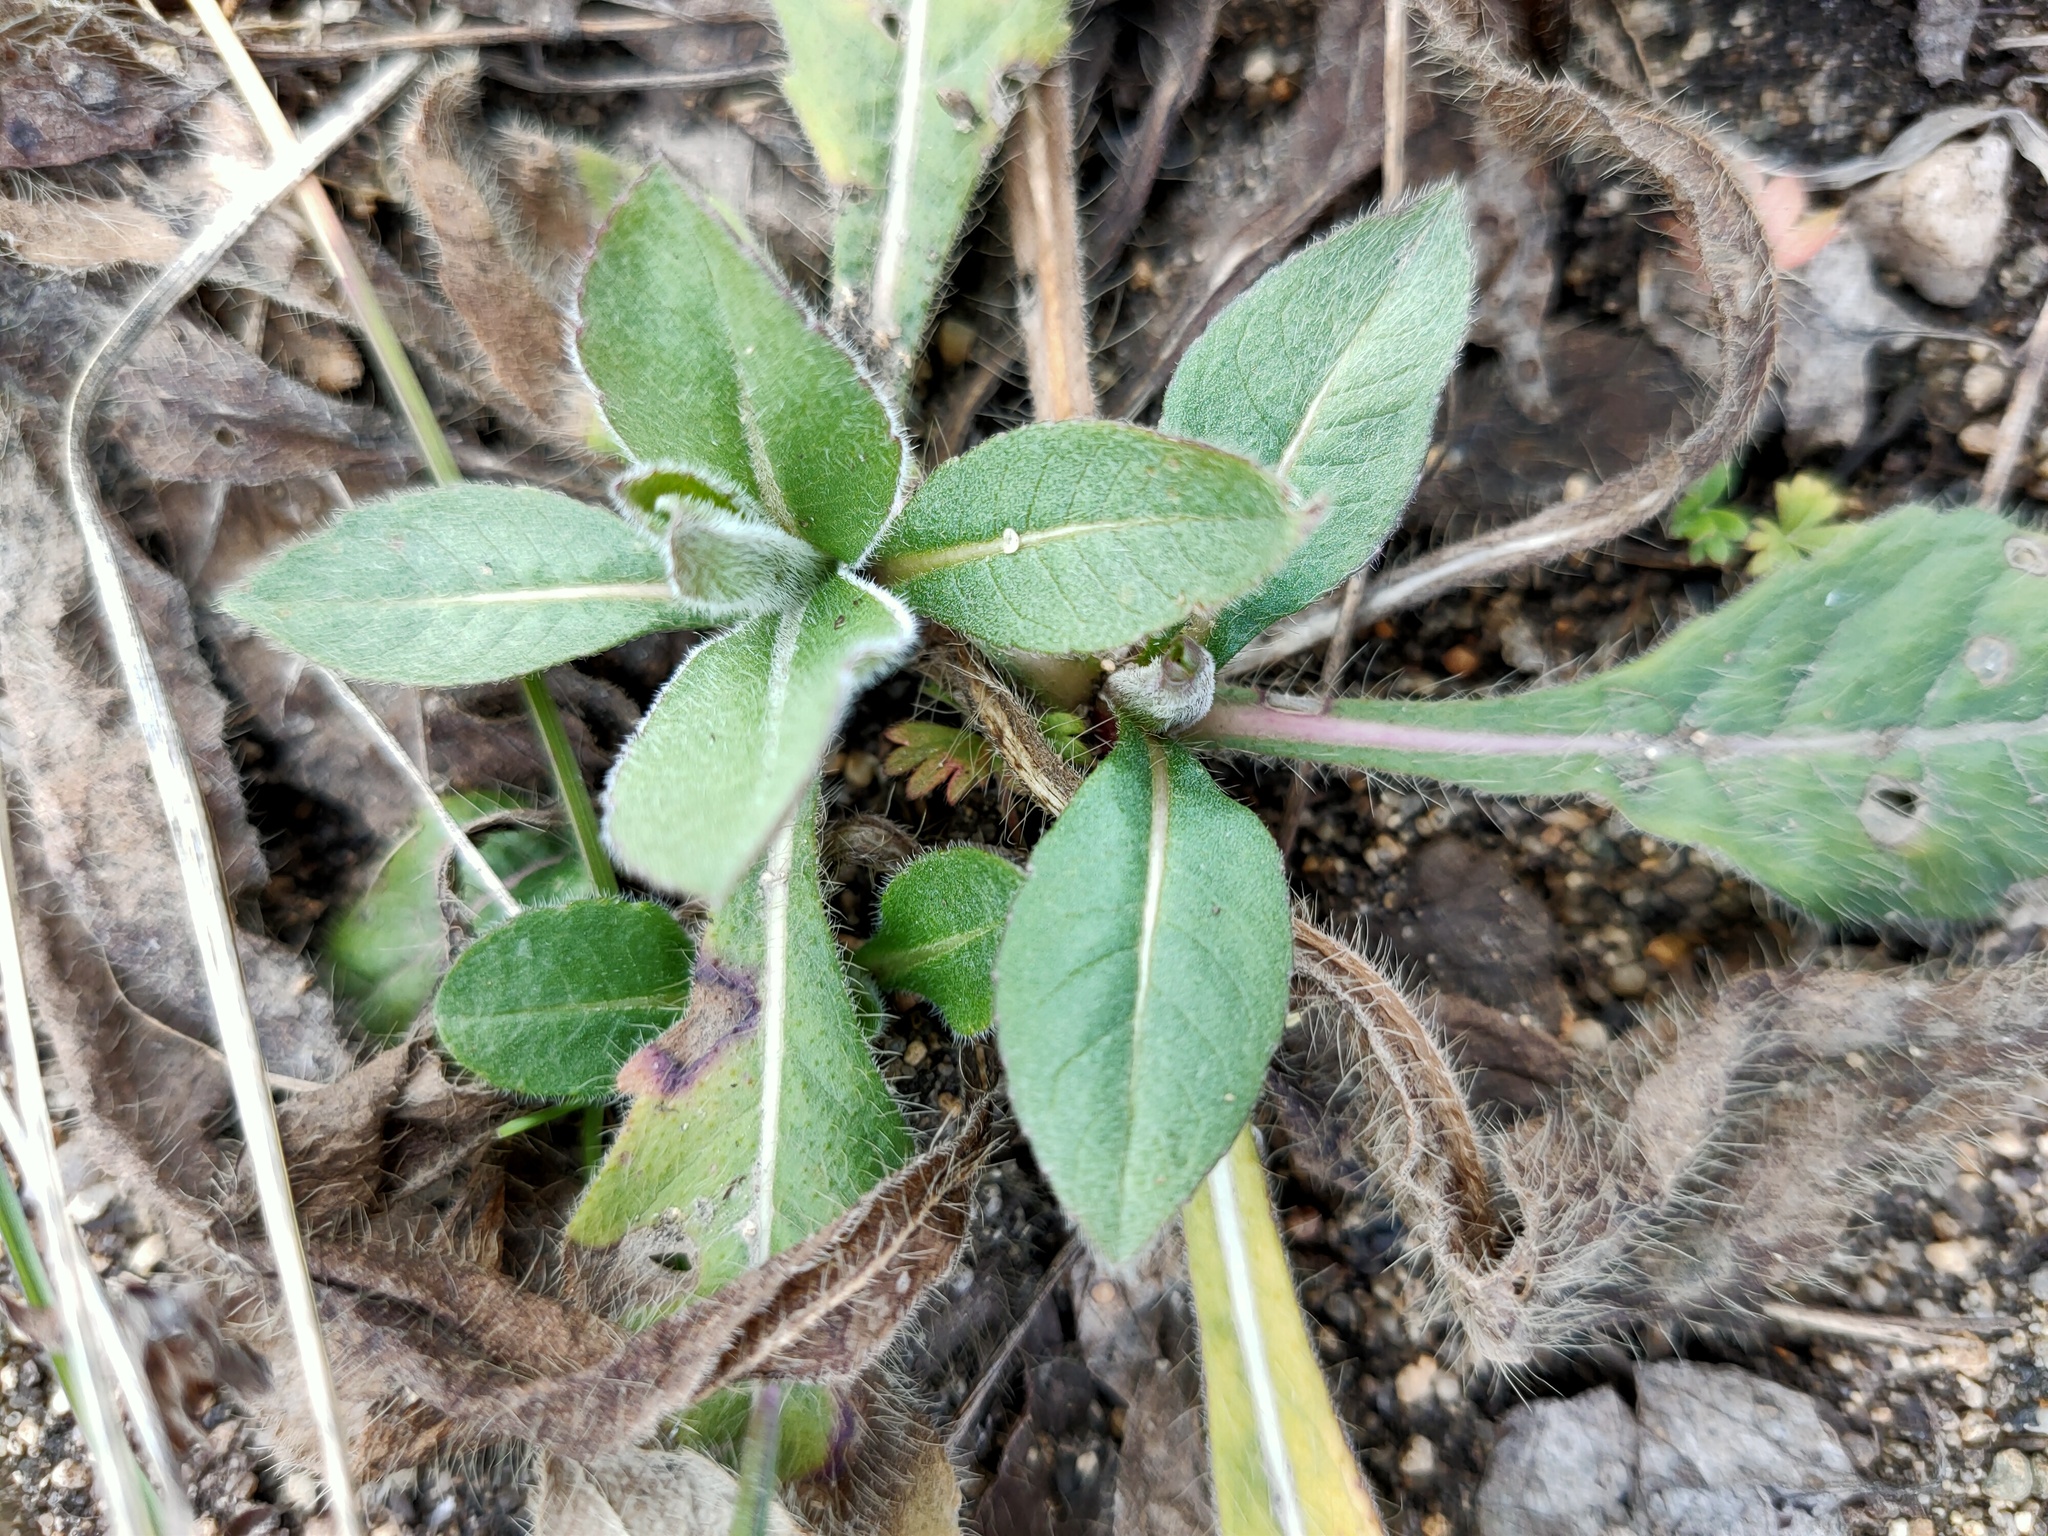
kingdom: Plantae
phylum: Tracheophyta
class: Magnoliopsida
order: Dipsacales
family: Caprifoliaceae
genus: Knautia
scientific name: Knautia arvensis
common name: Field scabiosa
